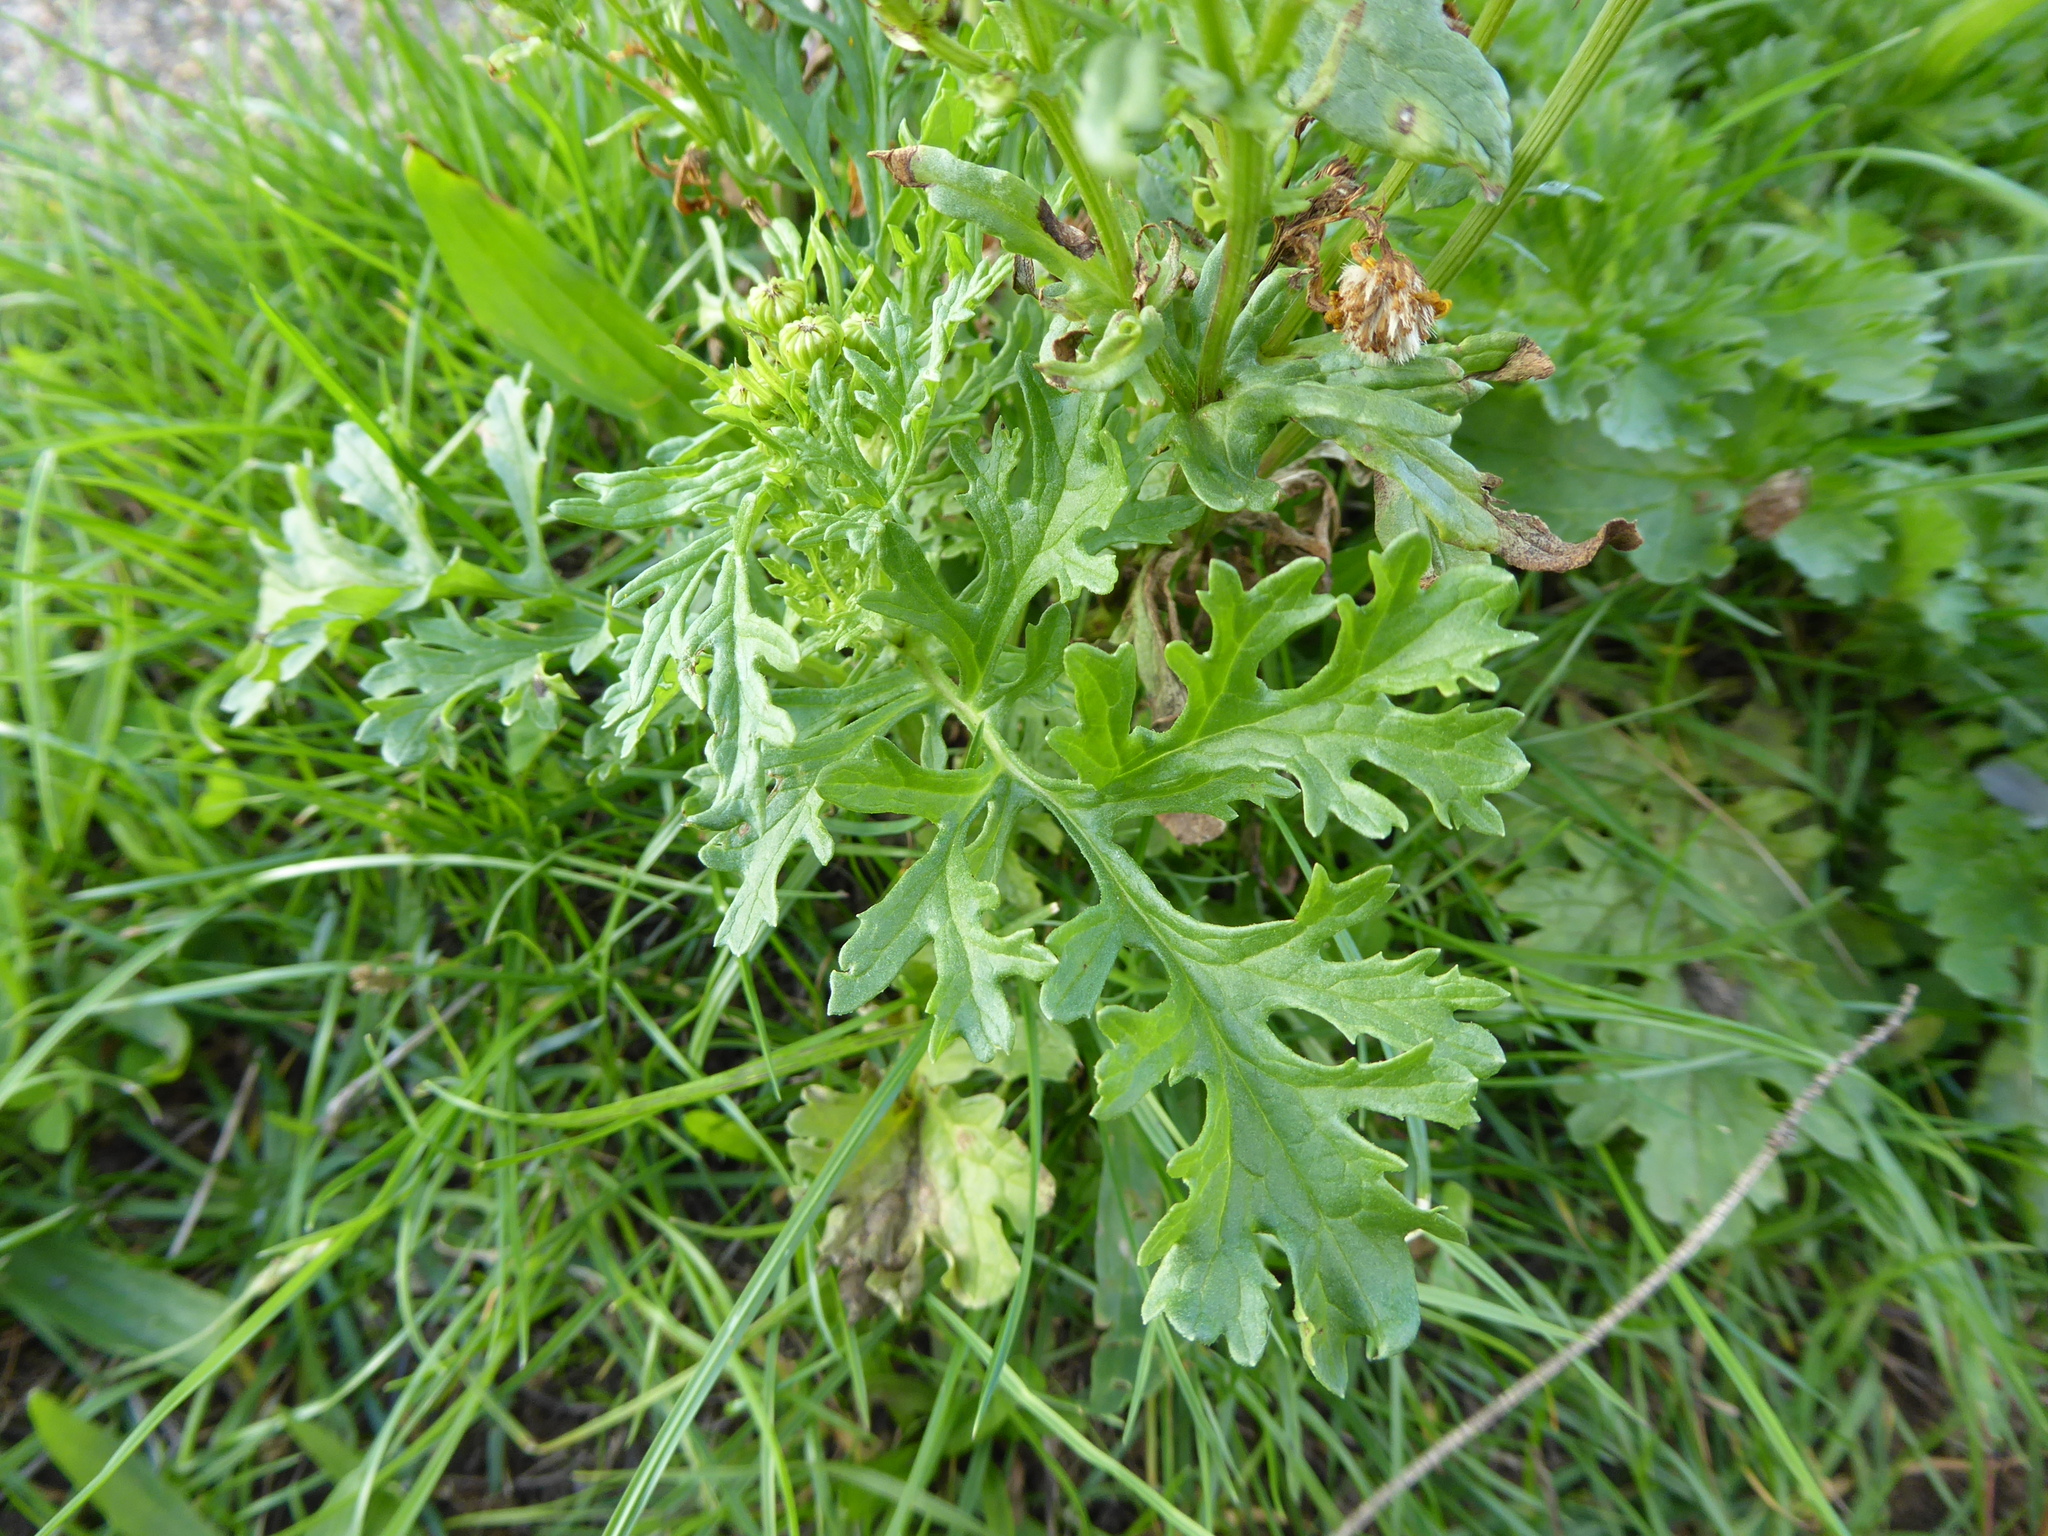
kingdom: Plantae
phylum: Tracheophyta
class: Magnoliopsida
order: Asterales
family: Asteraceae
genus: Jacobaea
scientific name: Jacobaea vulgaris
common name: Stinking willie
